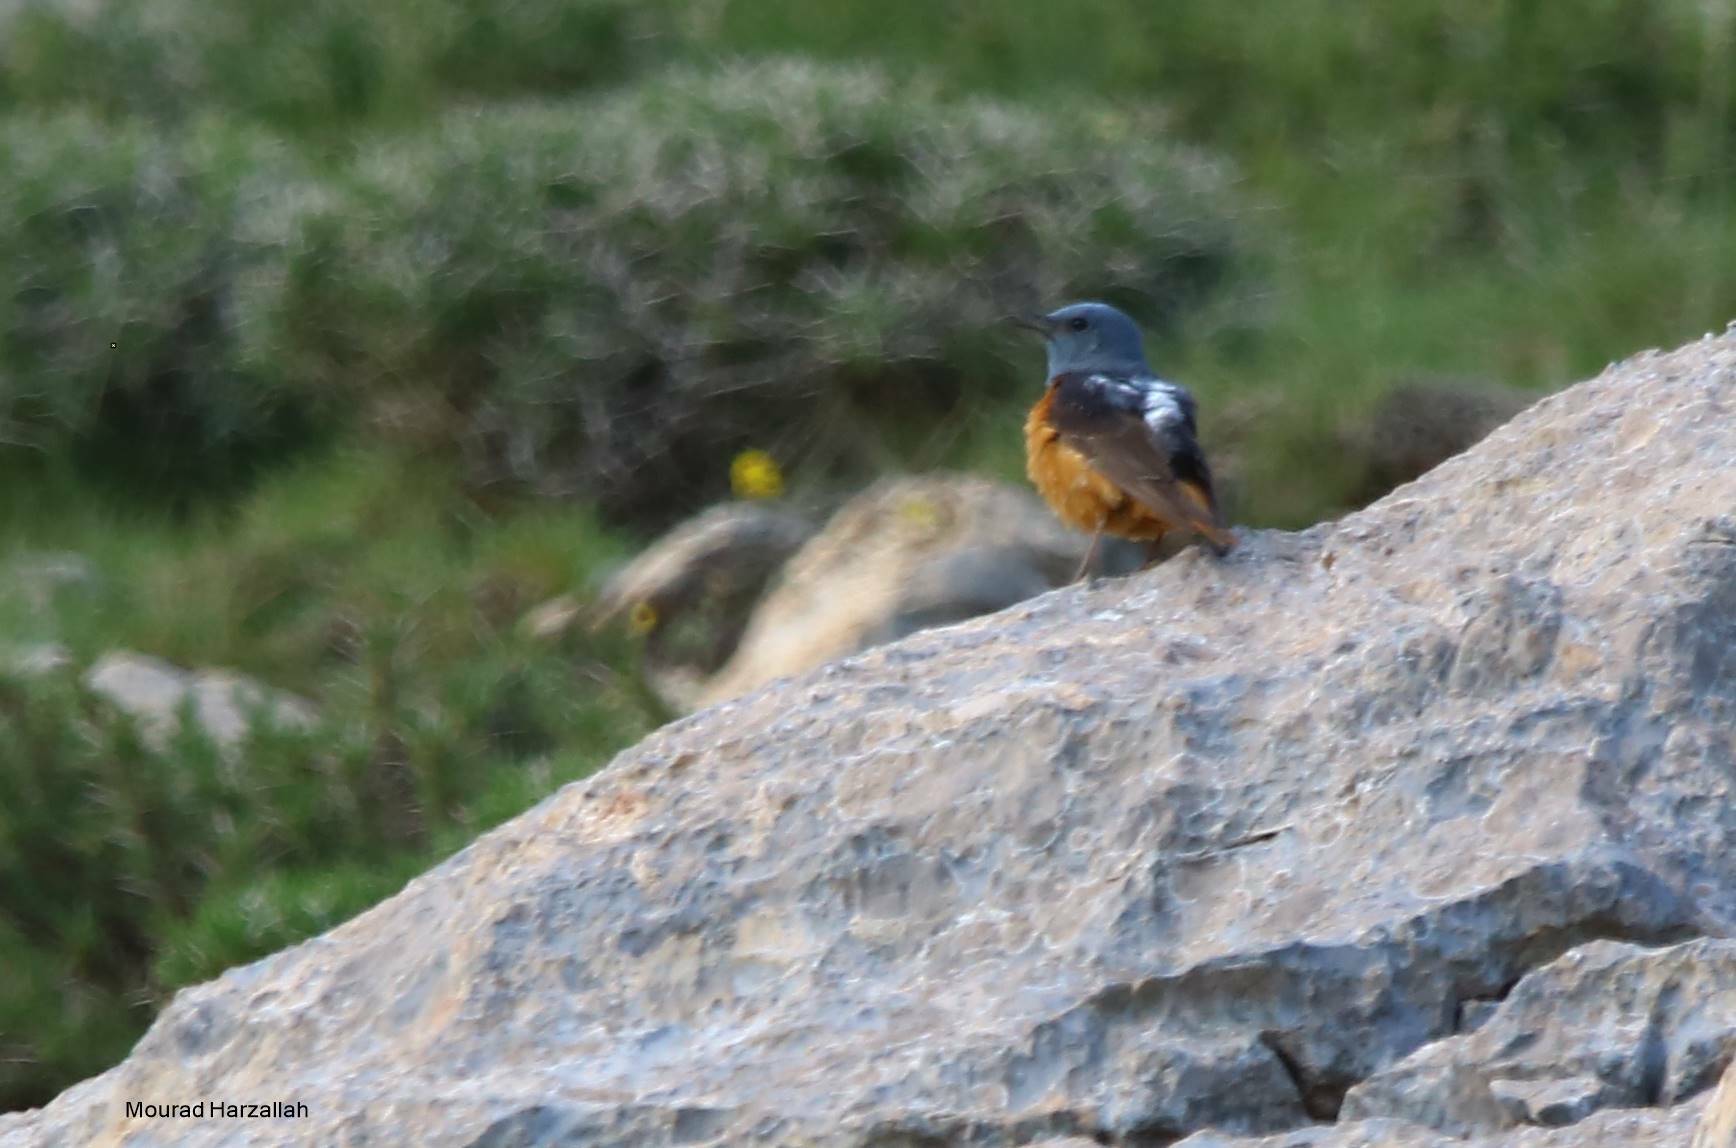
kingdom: Animalia
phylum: Chordata
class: Aves
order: Passeriformes
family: Muscicapidae
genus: Monticola
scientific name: Monticola saxatilis
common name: Rufous-tailed rock thrush
